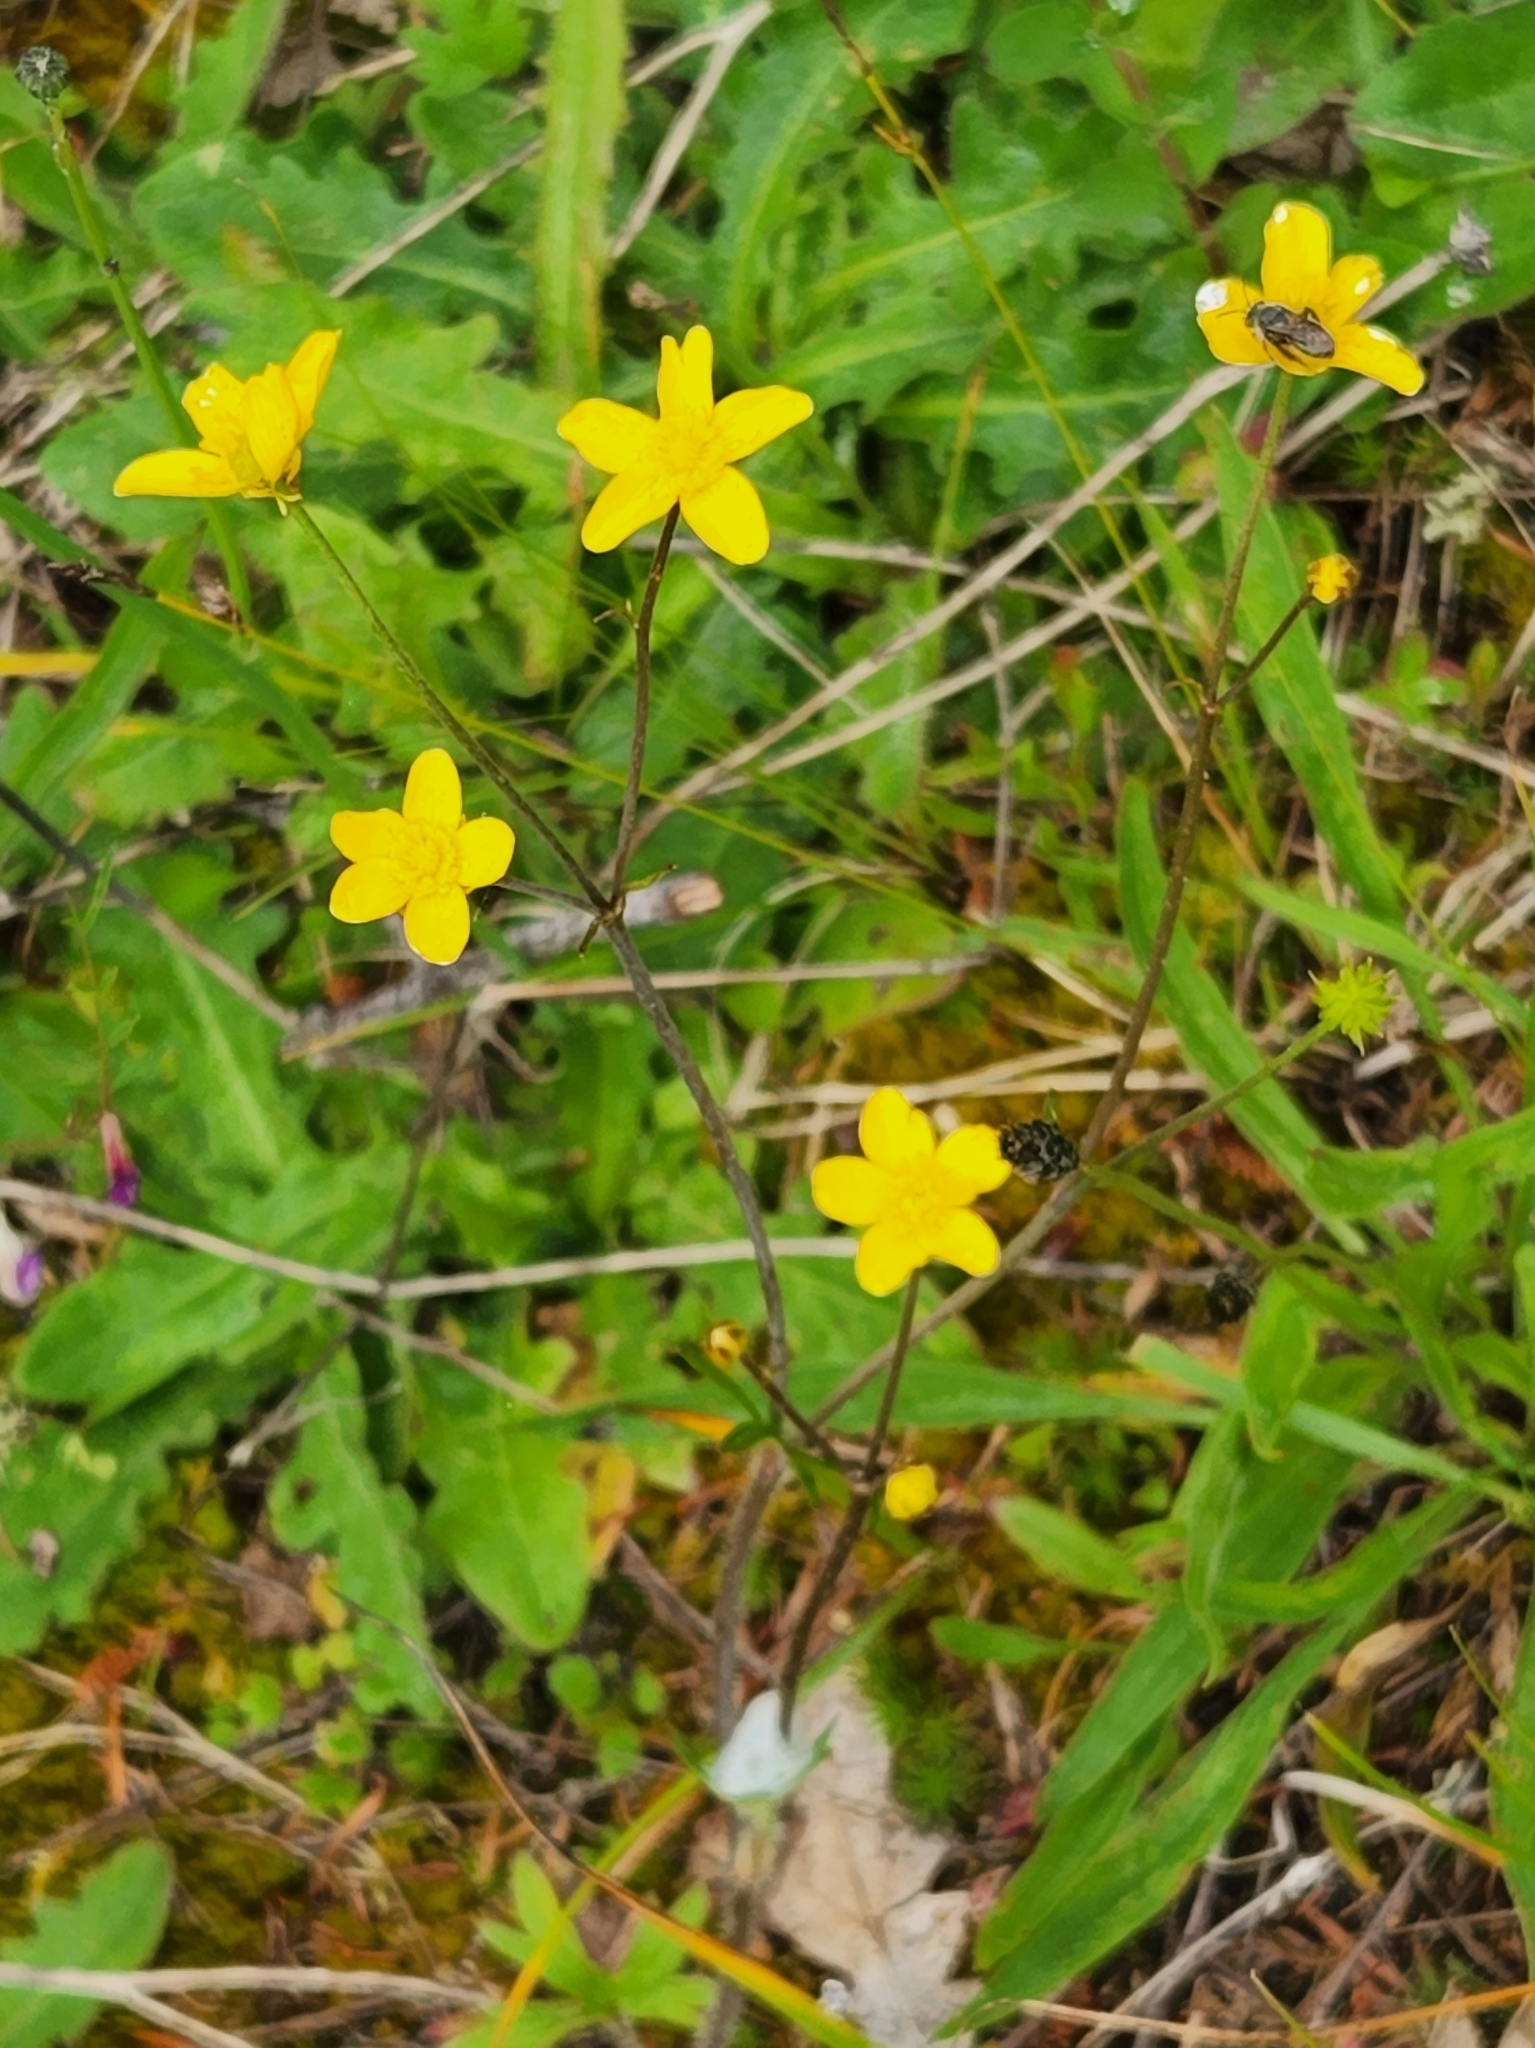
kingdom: Plantae
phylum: Tracheophyta
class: Magnoliopsida
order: Ranunculales
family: Ranunculaceae
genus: Ranunculus
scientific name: Ranunculus occidentalis
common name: Western buttercup
